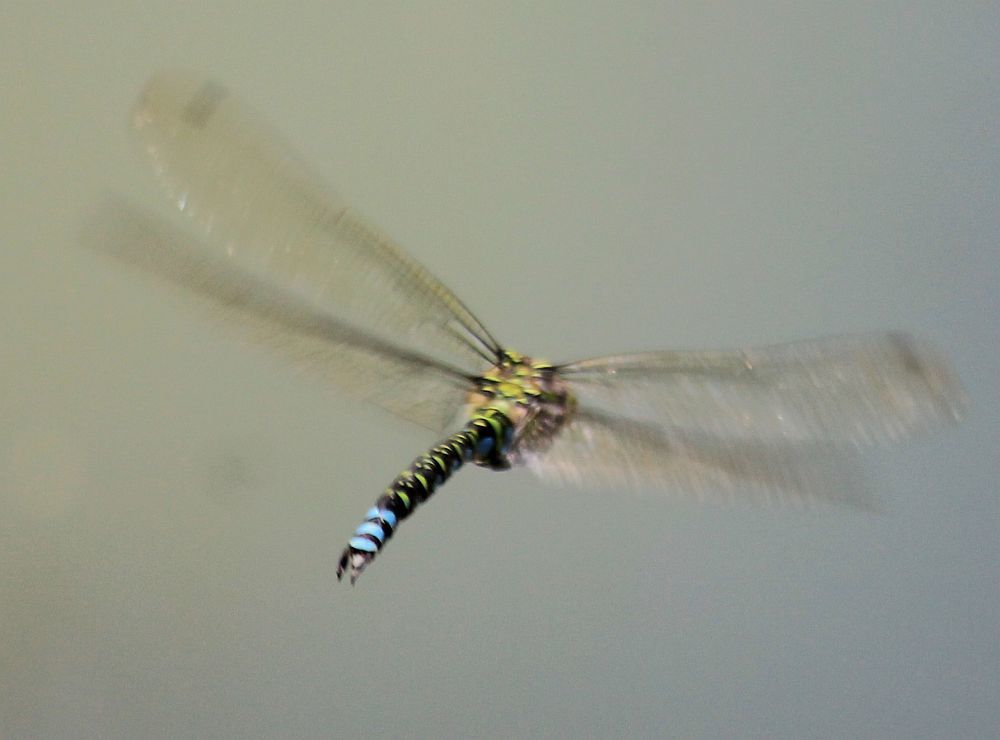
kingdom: Animalia
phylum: Arthropoda
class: Insecta
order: Odonata
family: Aeshnidae
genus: Aeshna
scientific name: Aeshna cyanea
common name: Southern hawker
